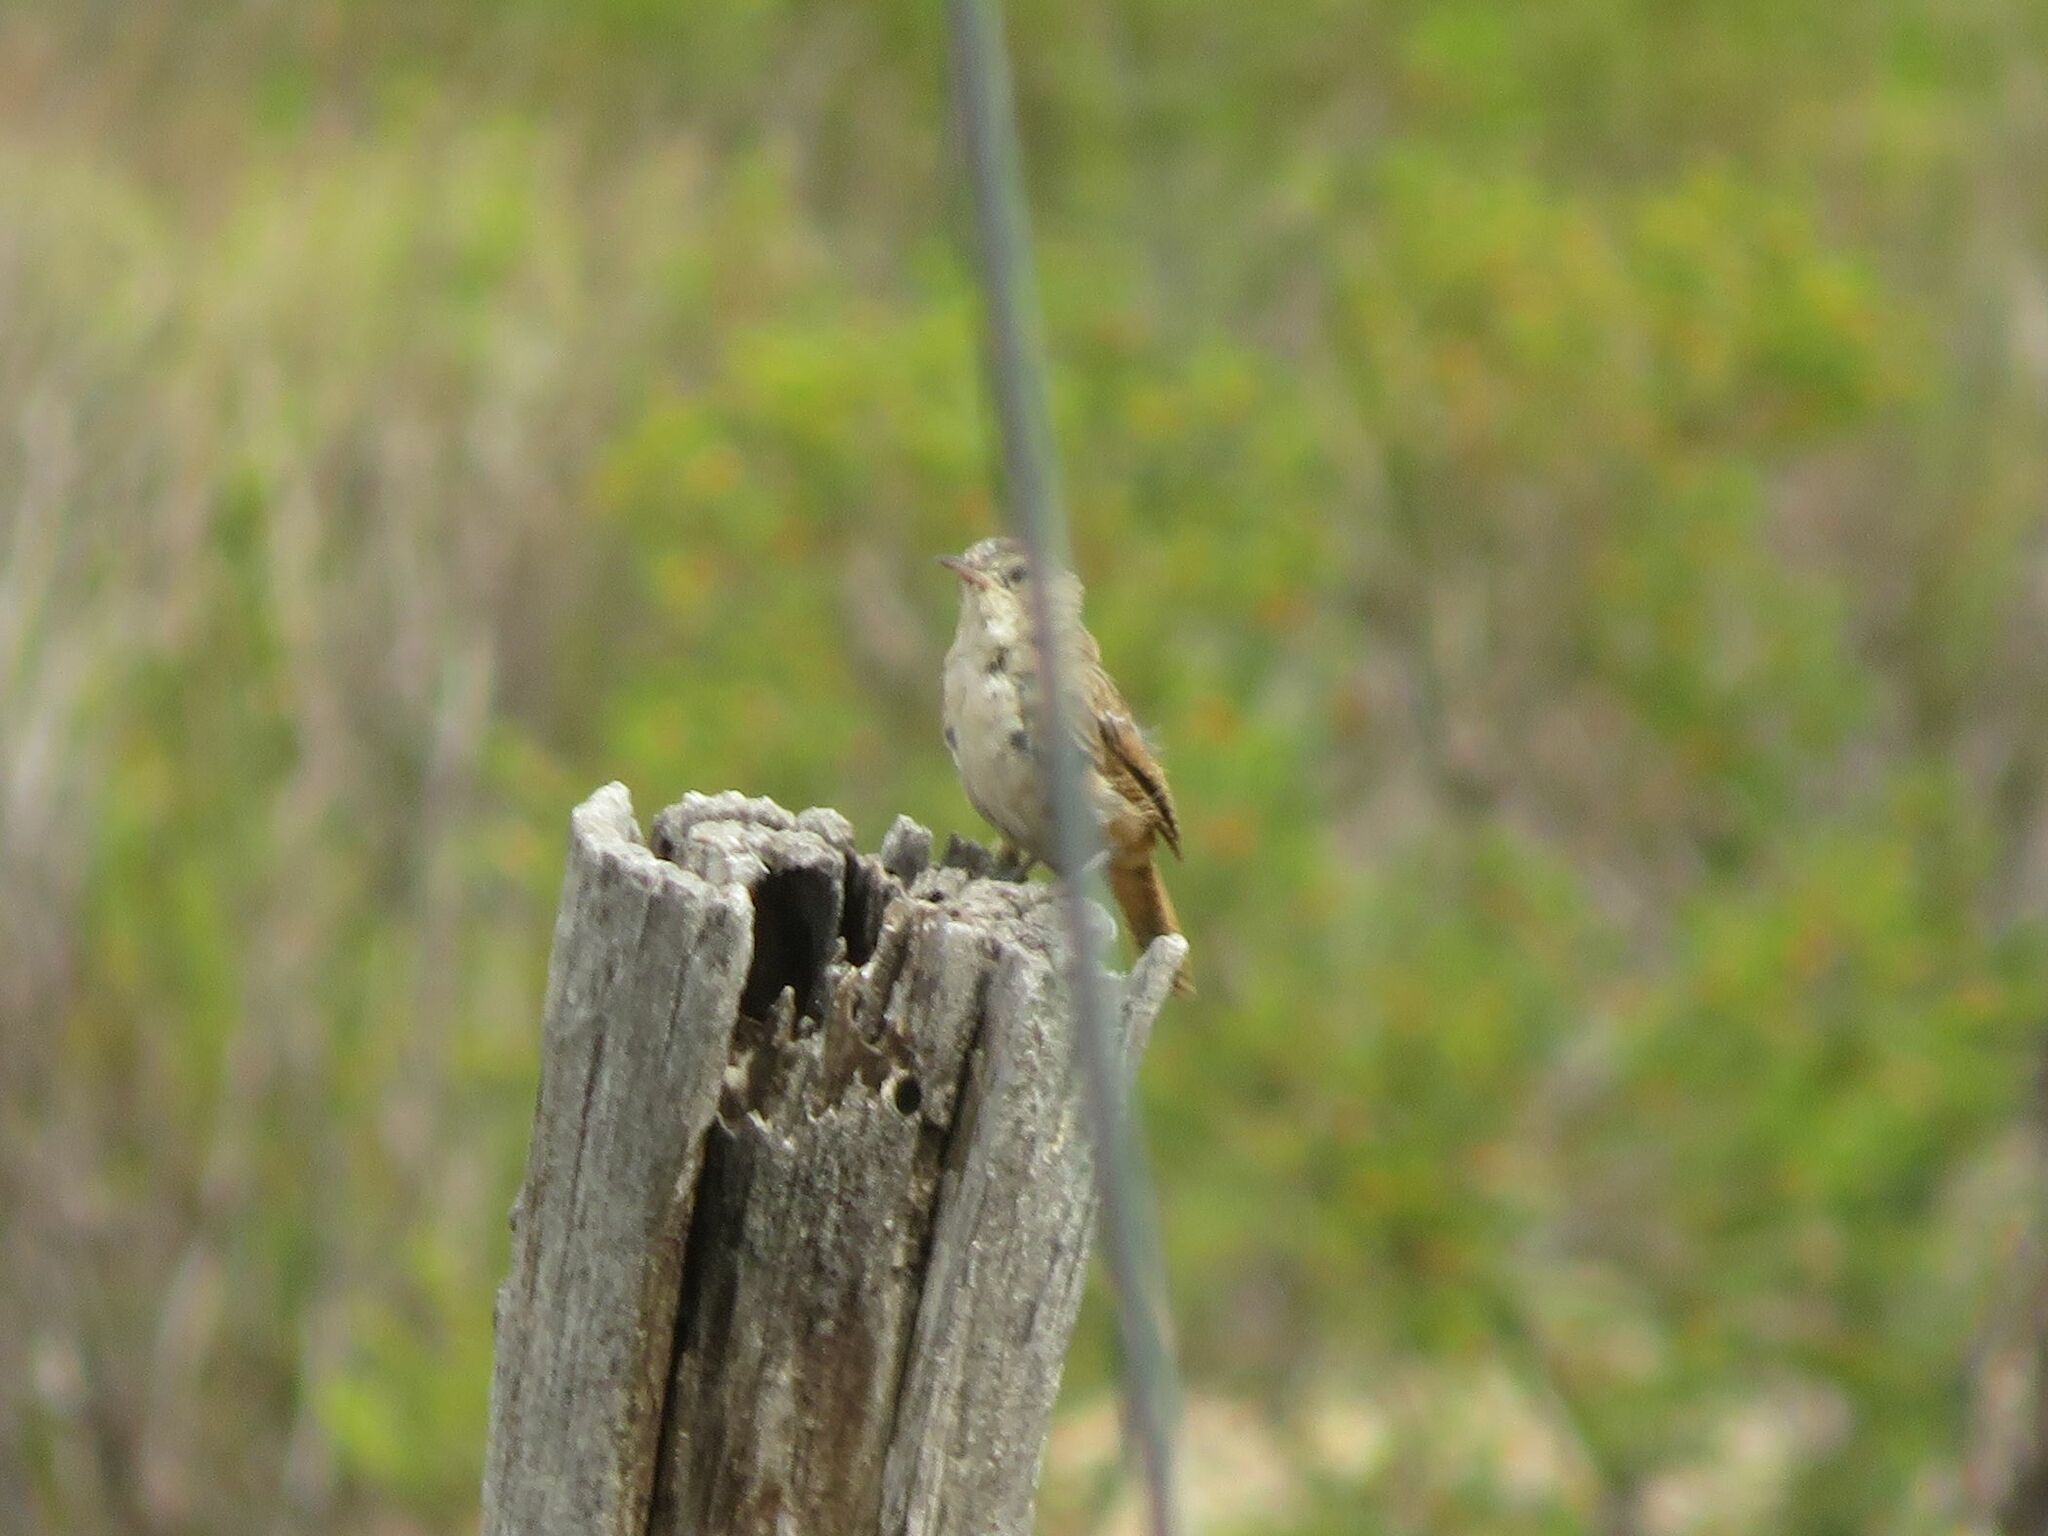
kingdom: Animalia
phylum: Chordata
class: Aves
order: Passeriformes
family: Troglodytidae
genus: Troglodytes
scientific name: Troglodytes aedon
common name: House wren
